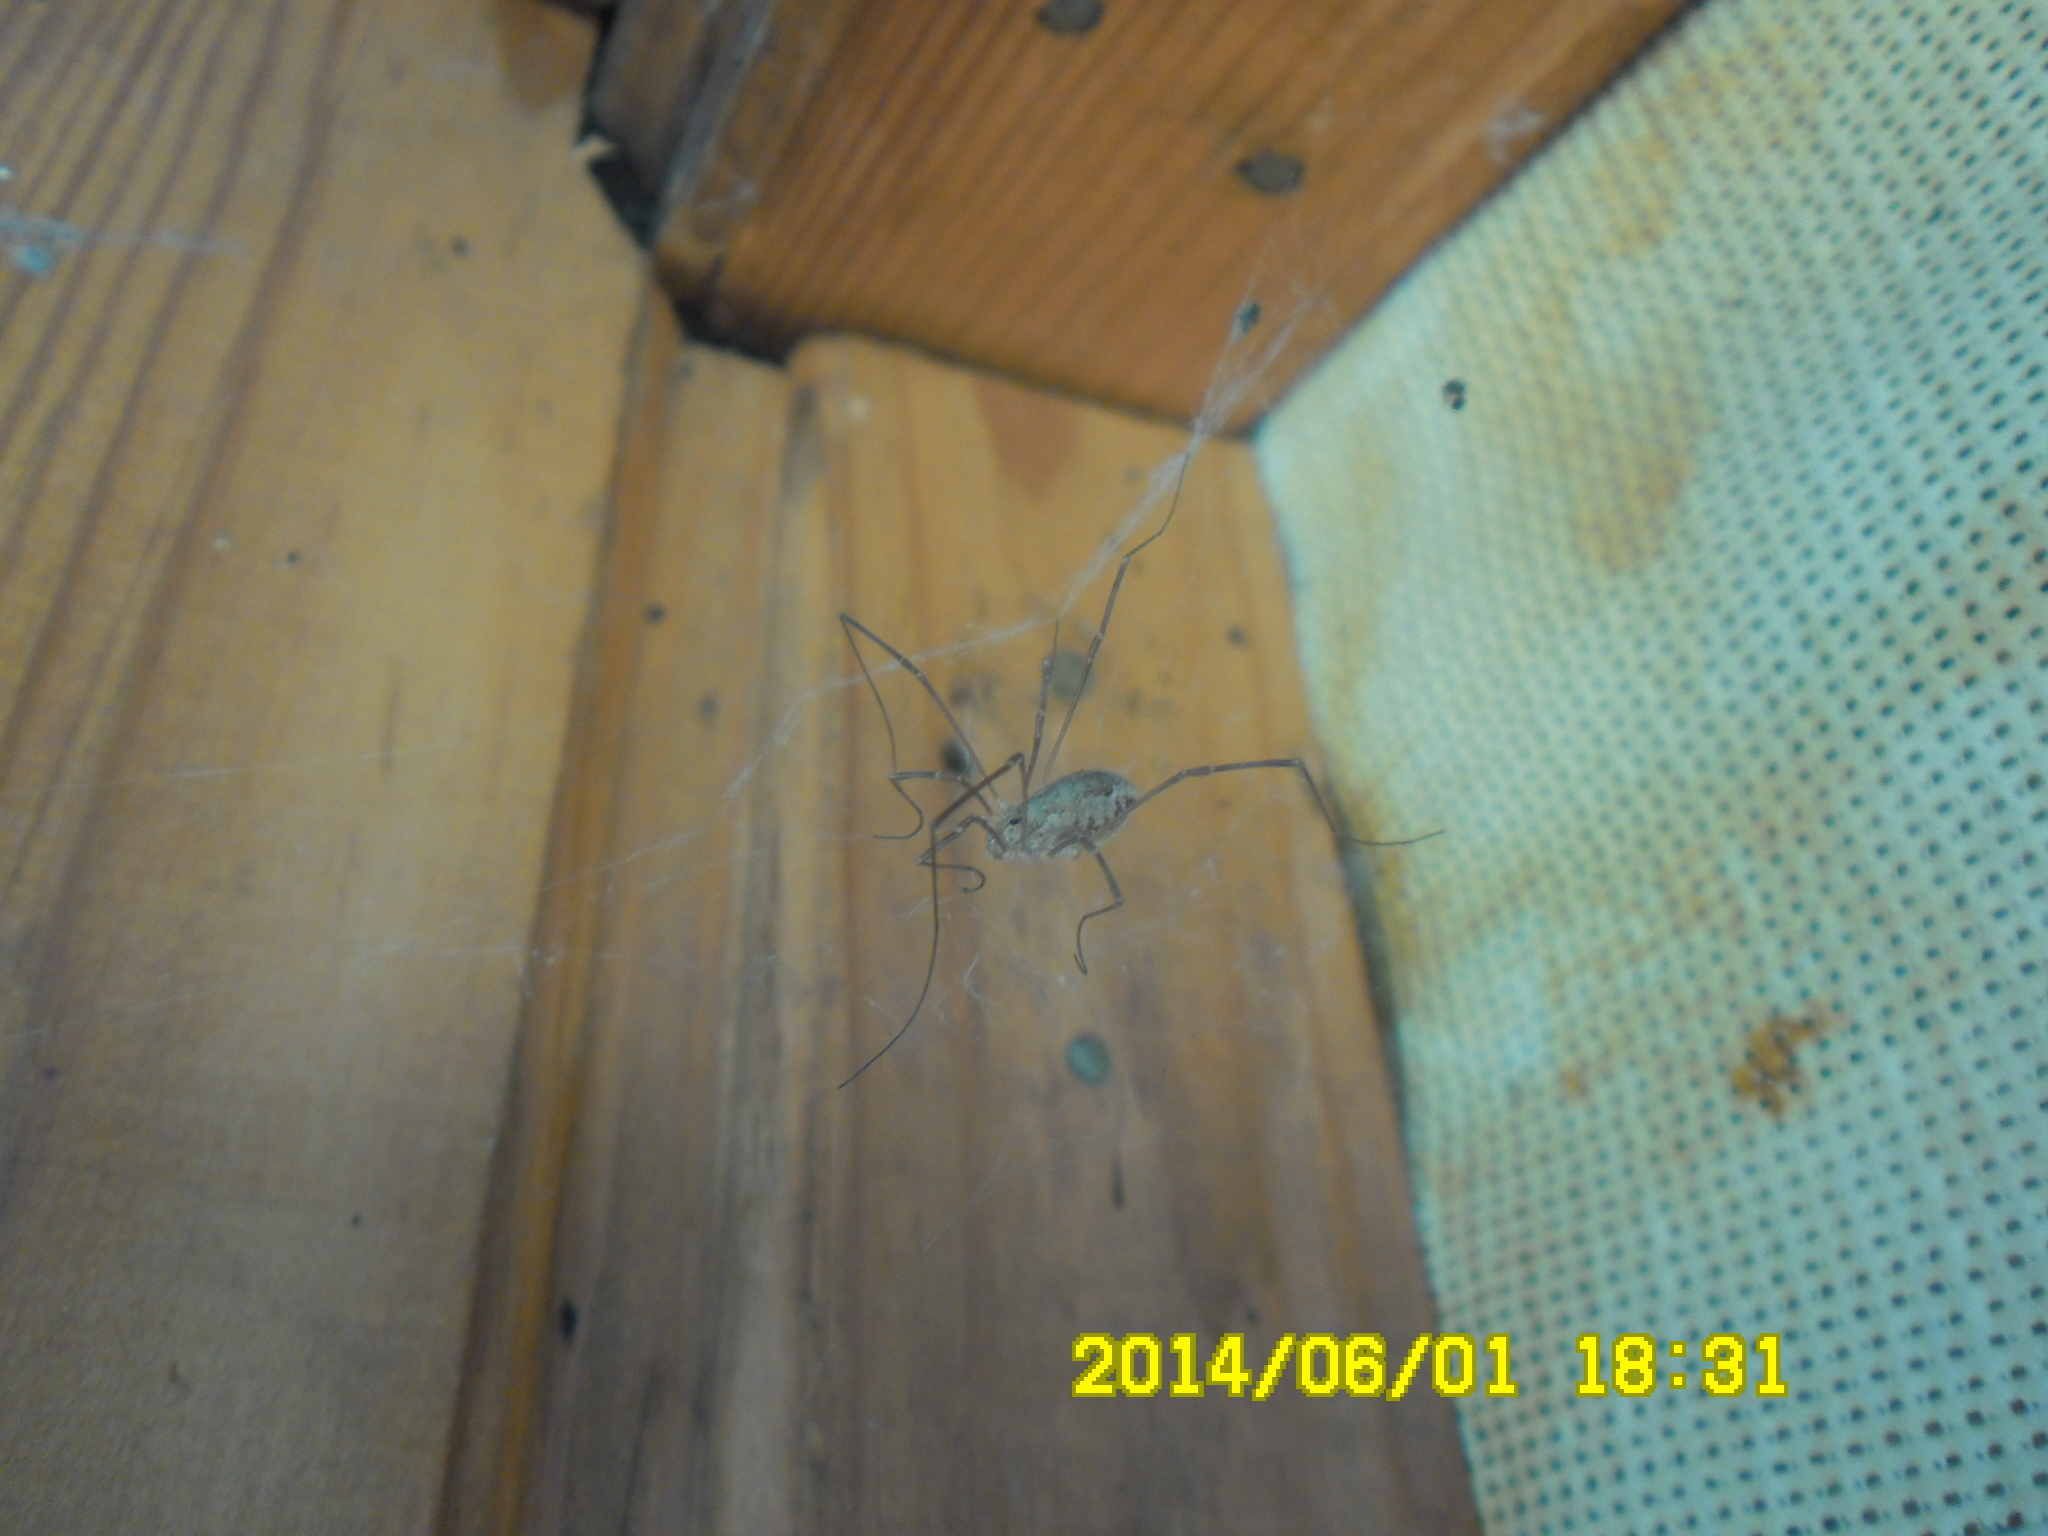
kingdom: Animalia
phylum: Arthropoda
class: Arachnida
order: Opiliones
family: Phalangiidae
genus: Rilaena
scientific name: Rilaena triangularis
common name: Spring harvestman
